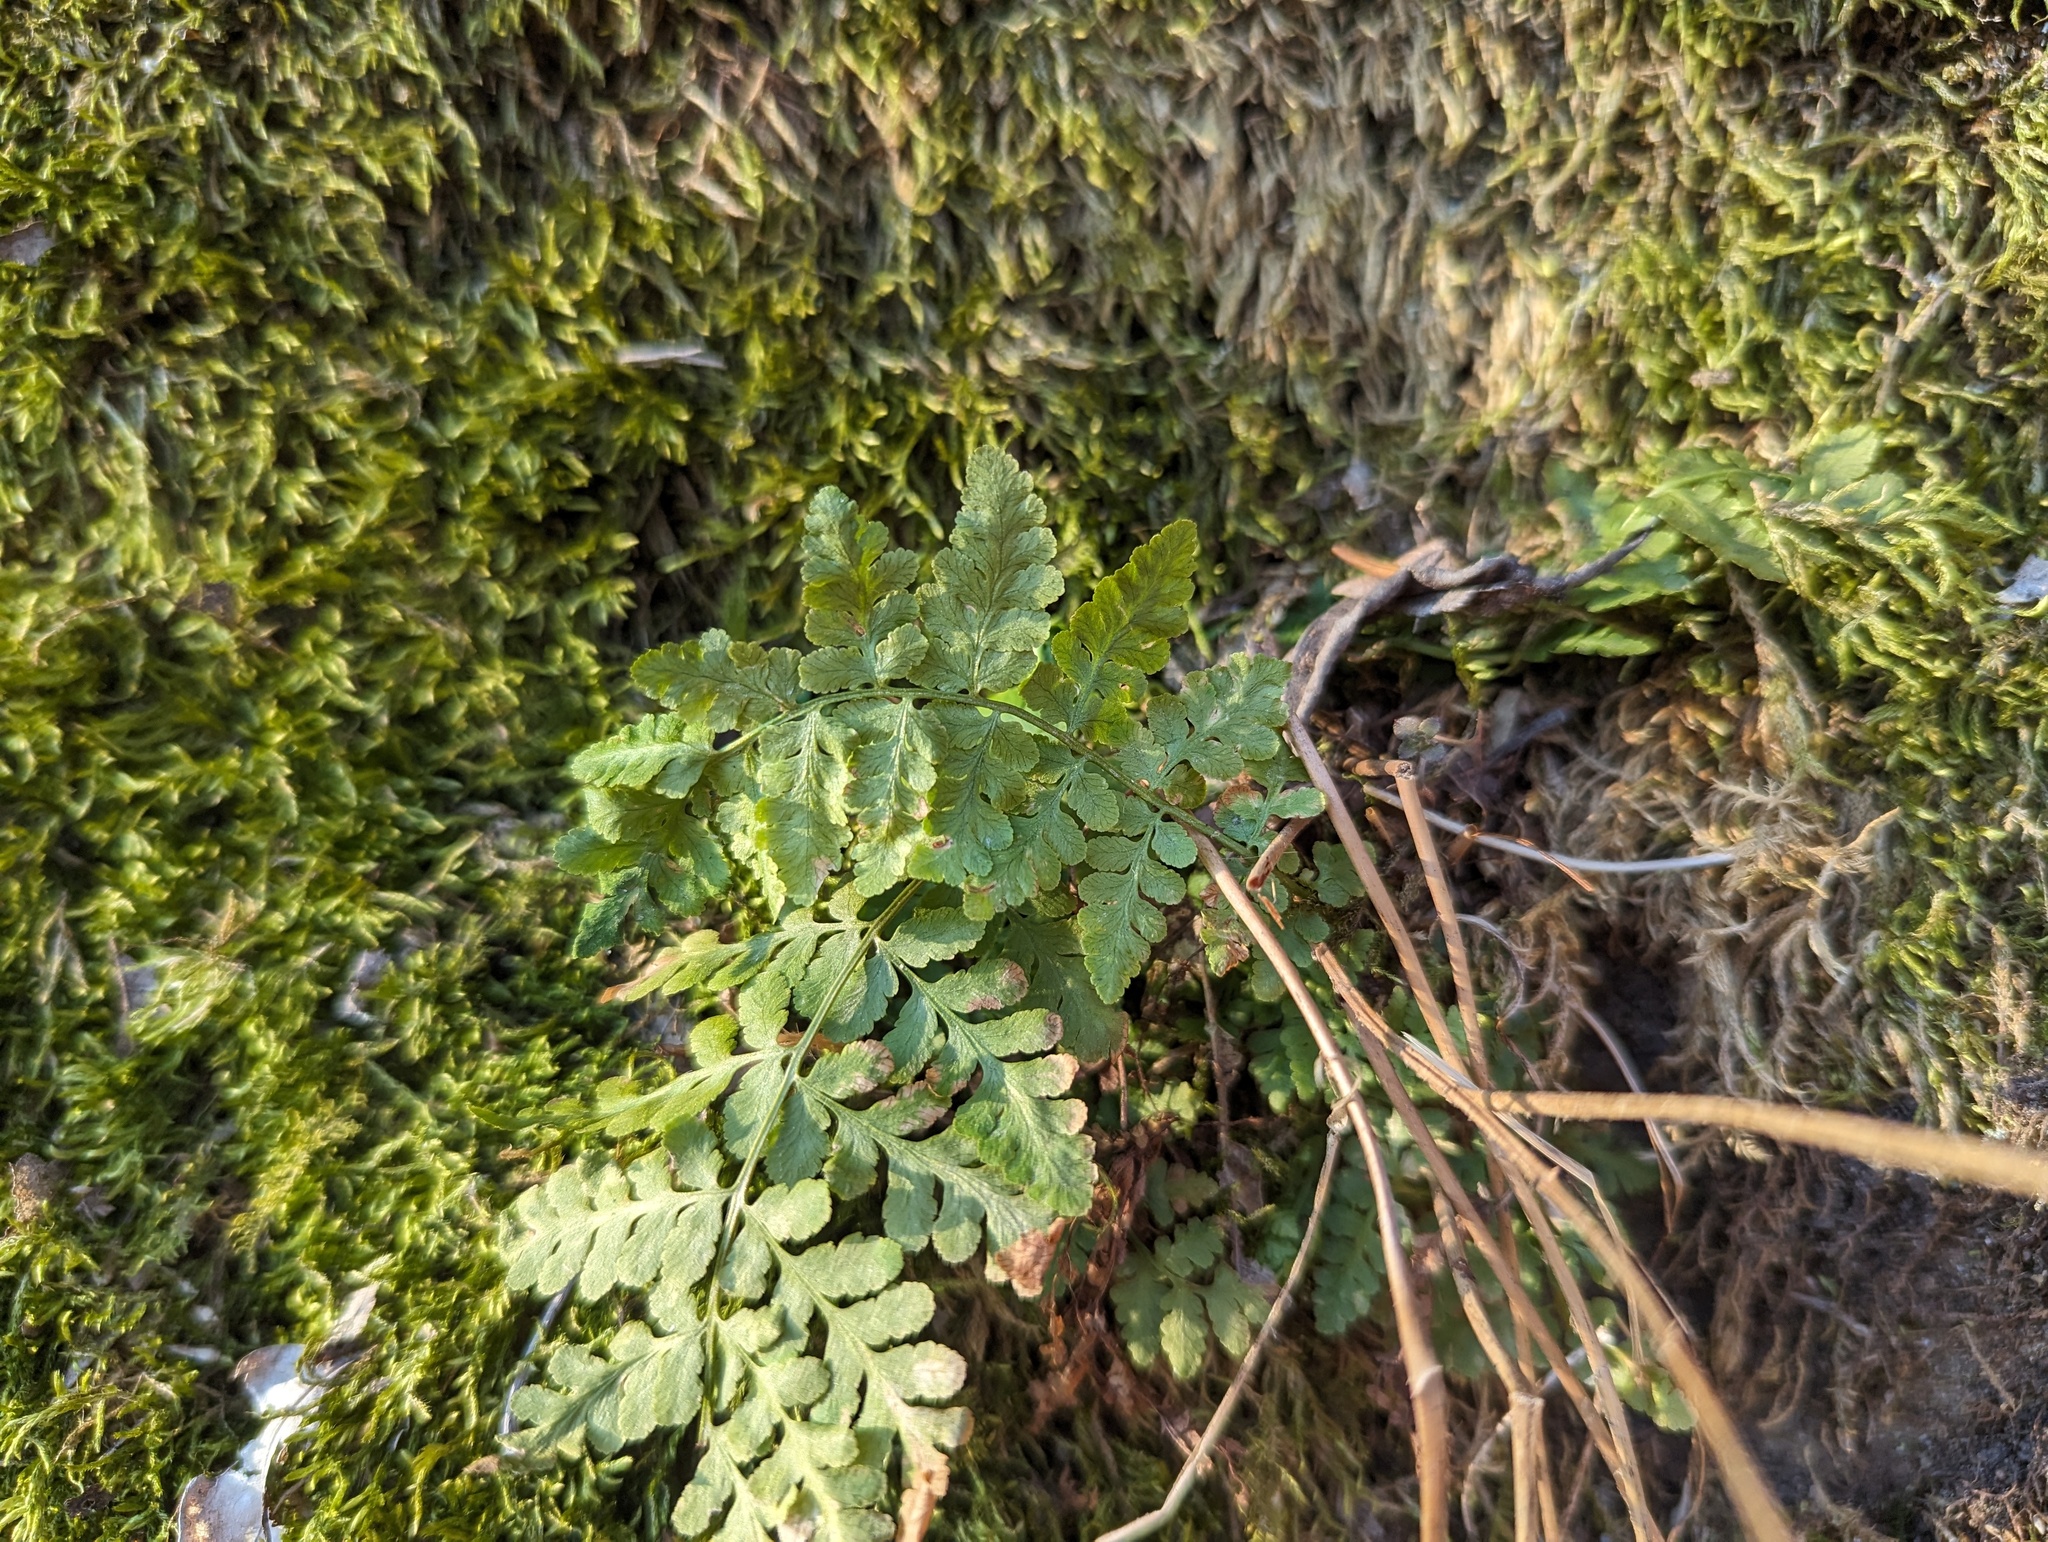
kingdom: Plantae
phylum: Tracheophyta
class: Polypodiopsida
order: Polypodiales
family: Woodsiaceae
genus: Physematium
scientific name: Physematium obtusum
